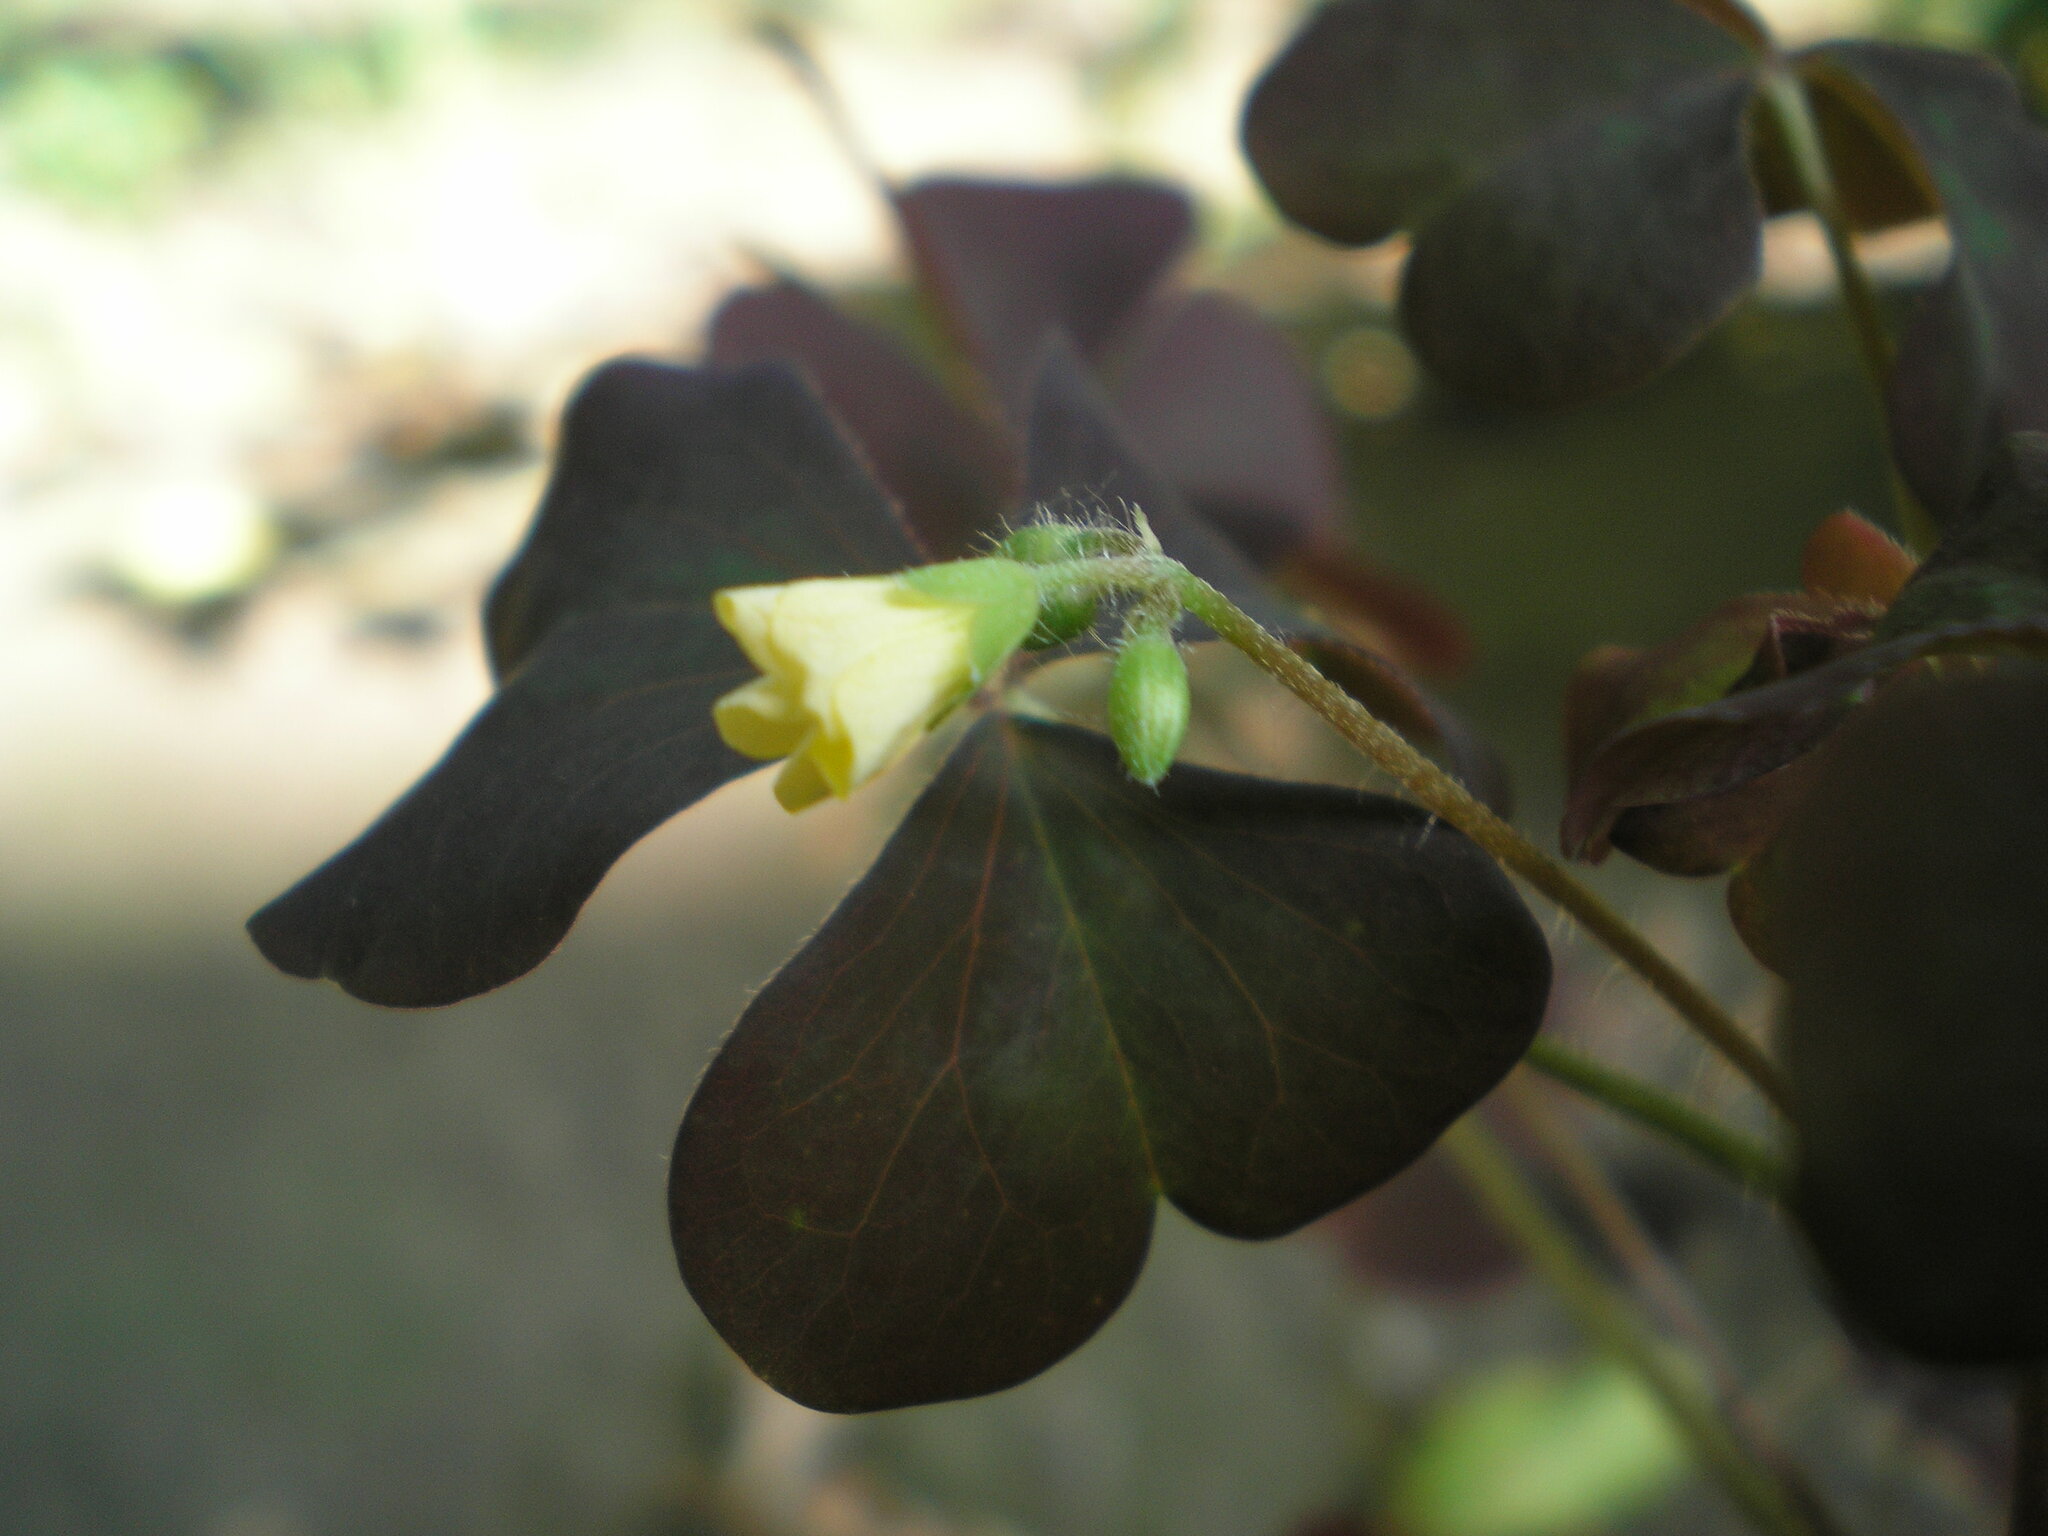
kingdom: Plantae
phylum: Tracheophyta
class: Magnoliopsida
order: Oxalidales
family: Oxalidaceae
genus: Oxalis
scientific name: Oxalis stricta
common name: Upright yellow-sorrel
